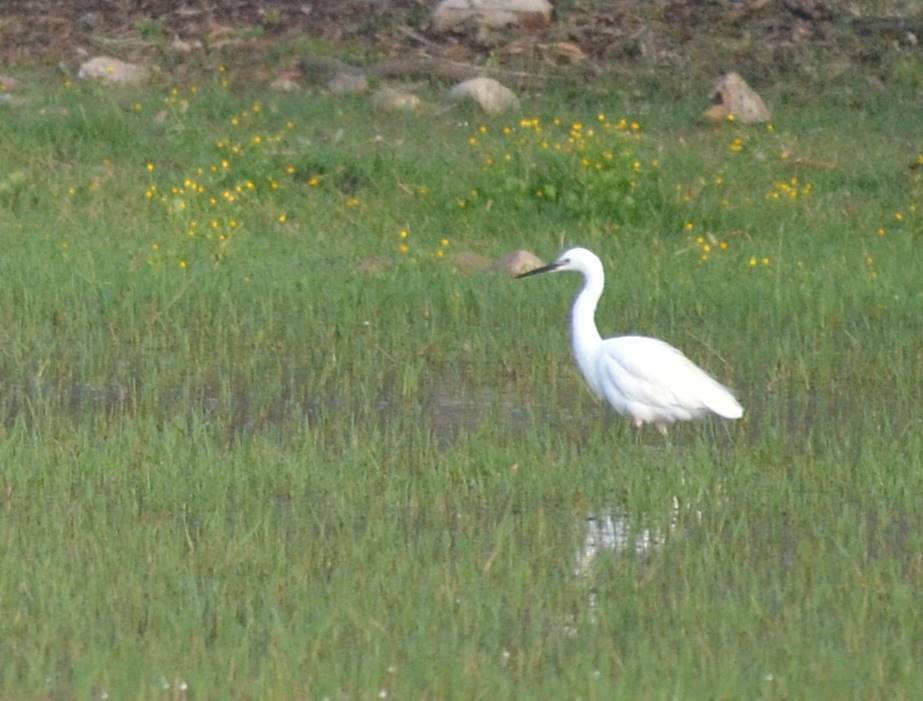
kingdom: Animalia
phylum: Chordata
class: Aves
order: Pelecaniformes
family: Ardeidae
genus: Egretta
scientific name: Egretta garzetta
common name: Little egret
